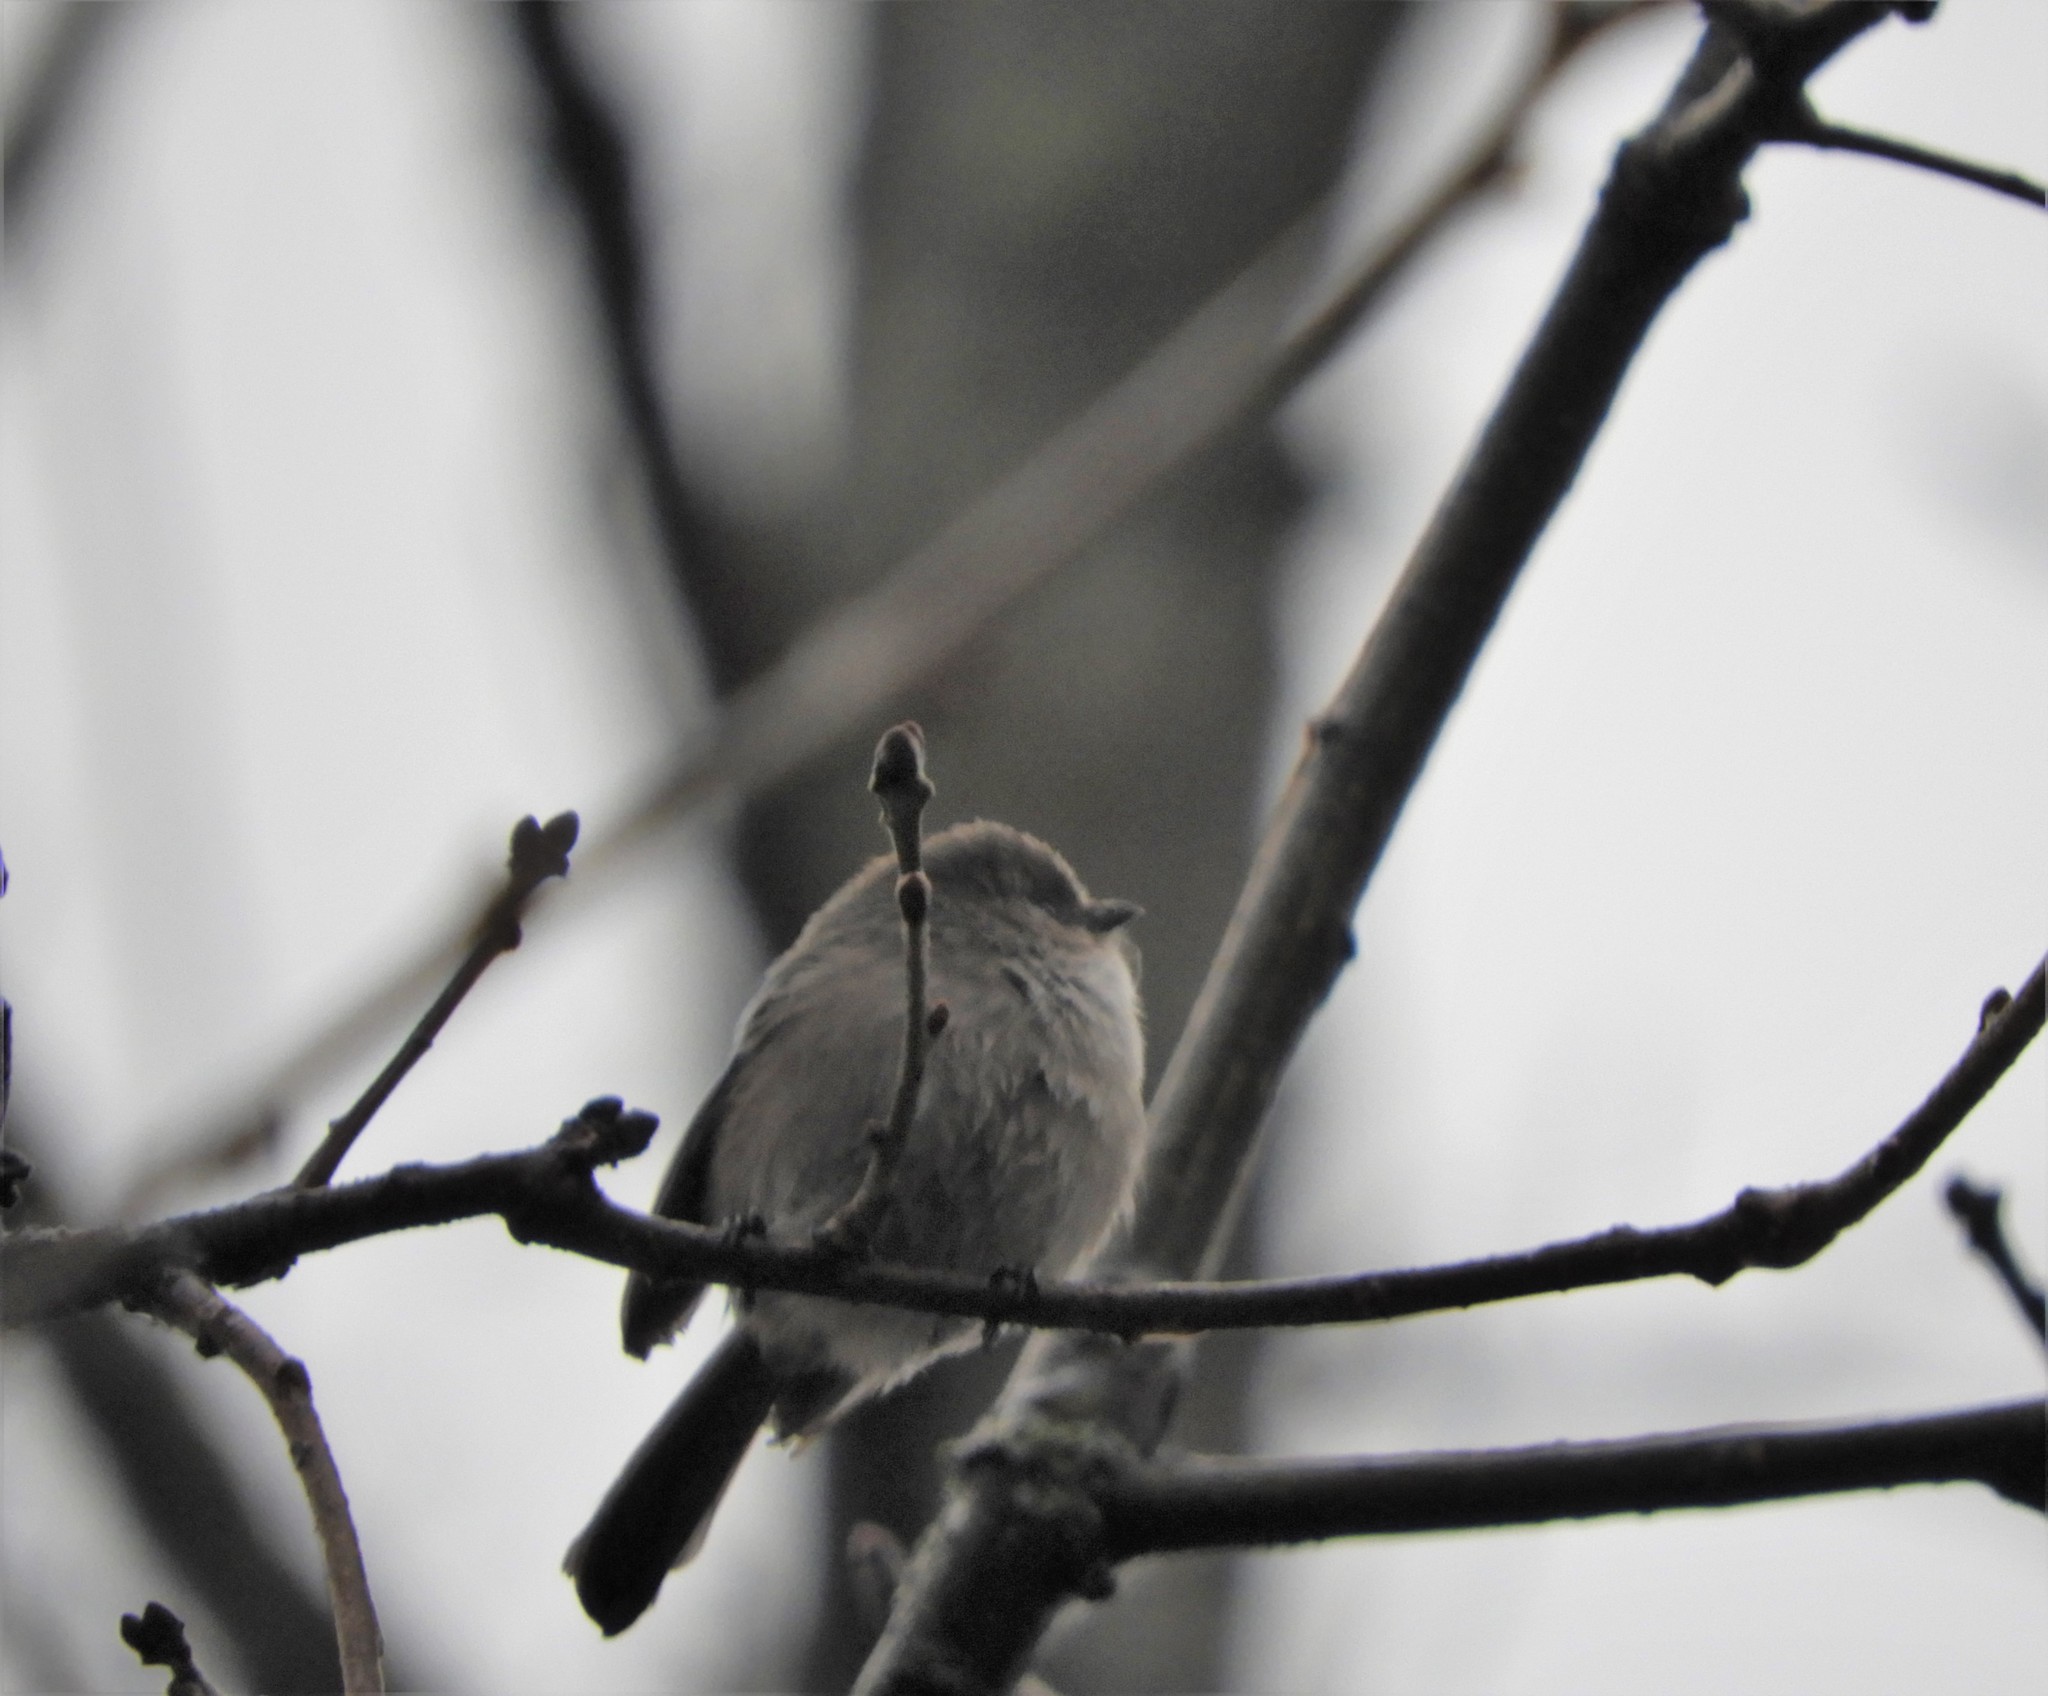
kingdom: Animalia
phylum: Chordata
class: Aves
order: Passeriformes
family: Aegithalidae
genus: Psaltriparus
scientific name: Psaltriparus minimus
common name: American bushtit
